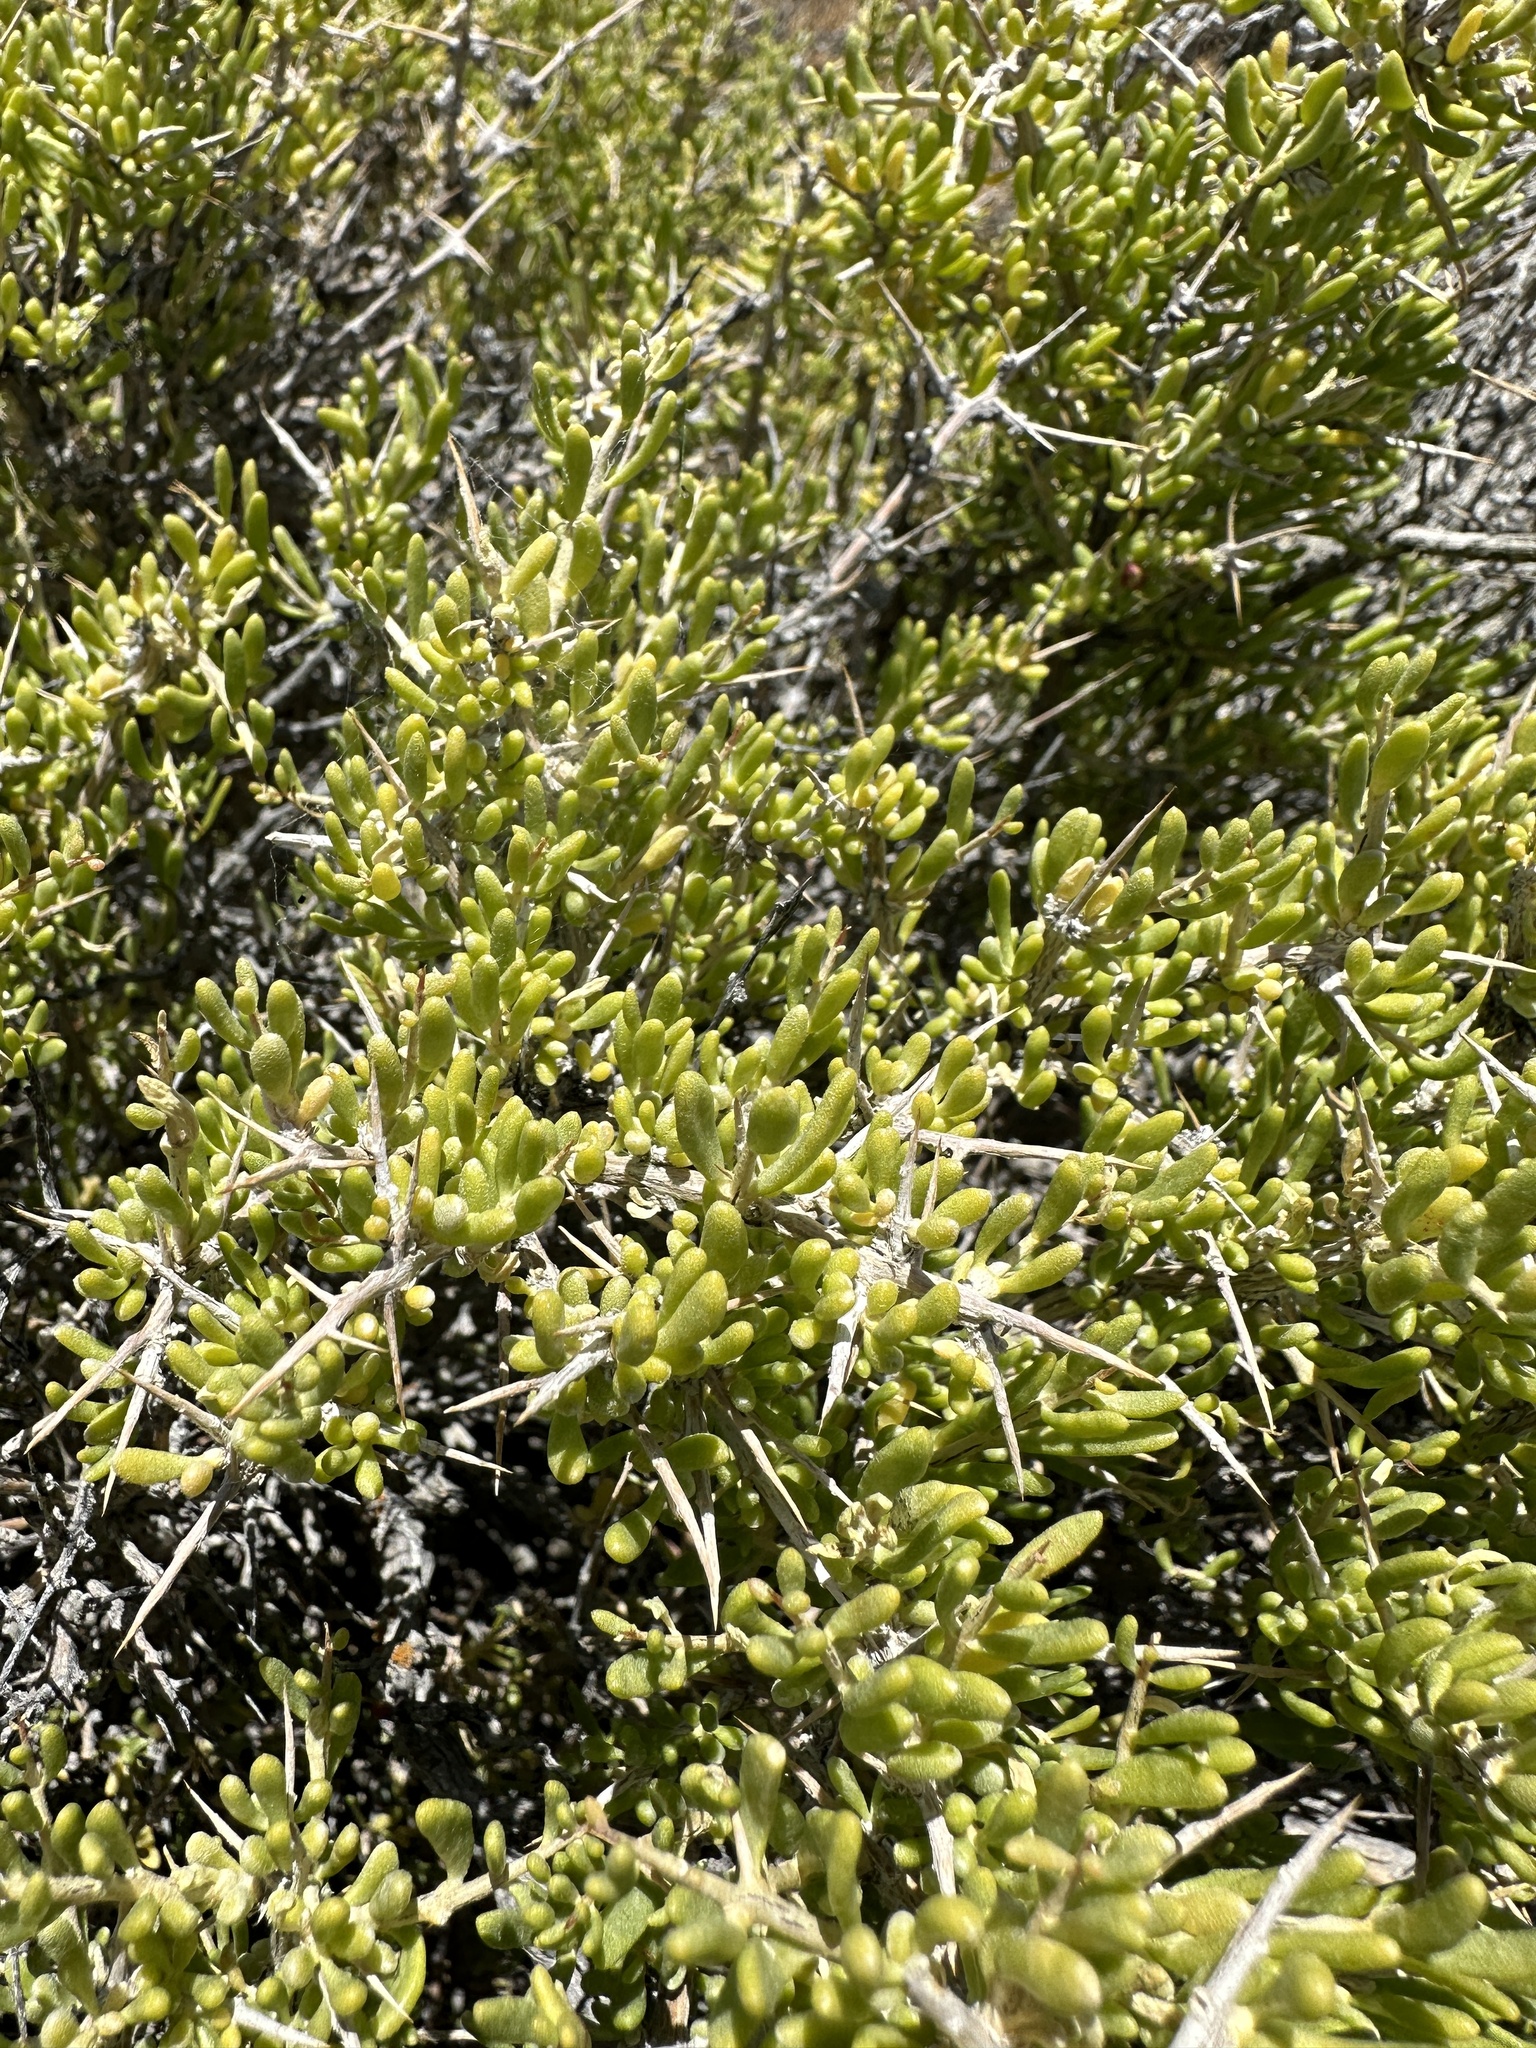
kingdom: Plantae
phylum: Tracheophyta
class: Magnoliopsida
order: Caryophyllales
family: Sarcobataceae
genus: Sarcobatus
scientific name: Sarcobatus baileyi
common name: Bailey greasewood
